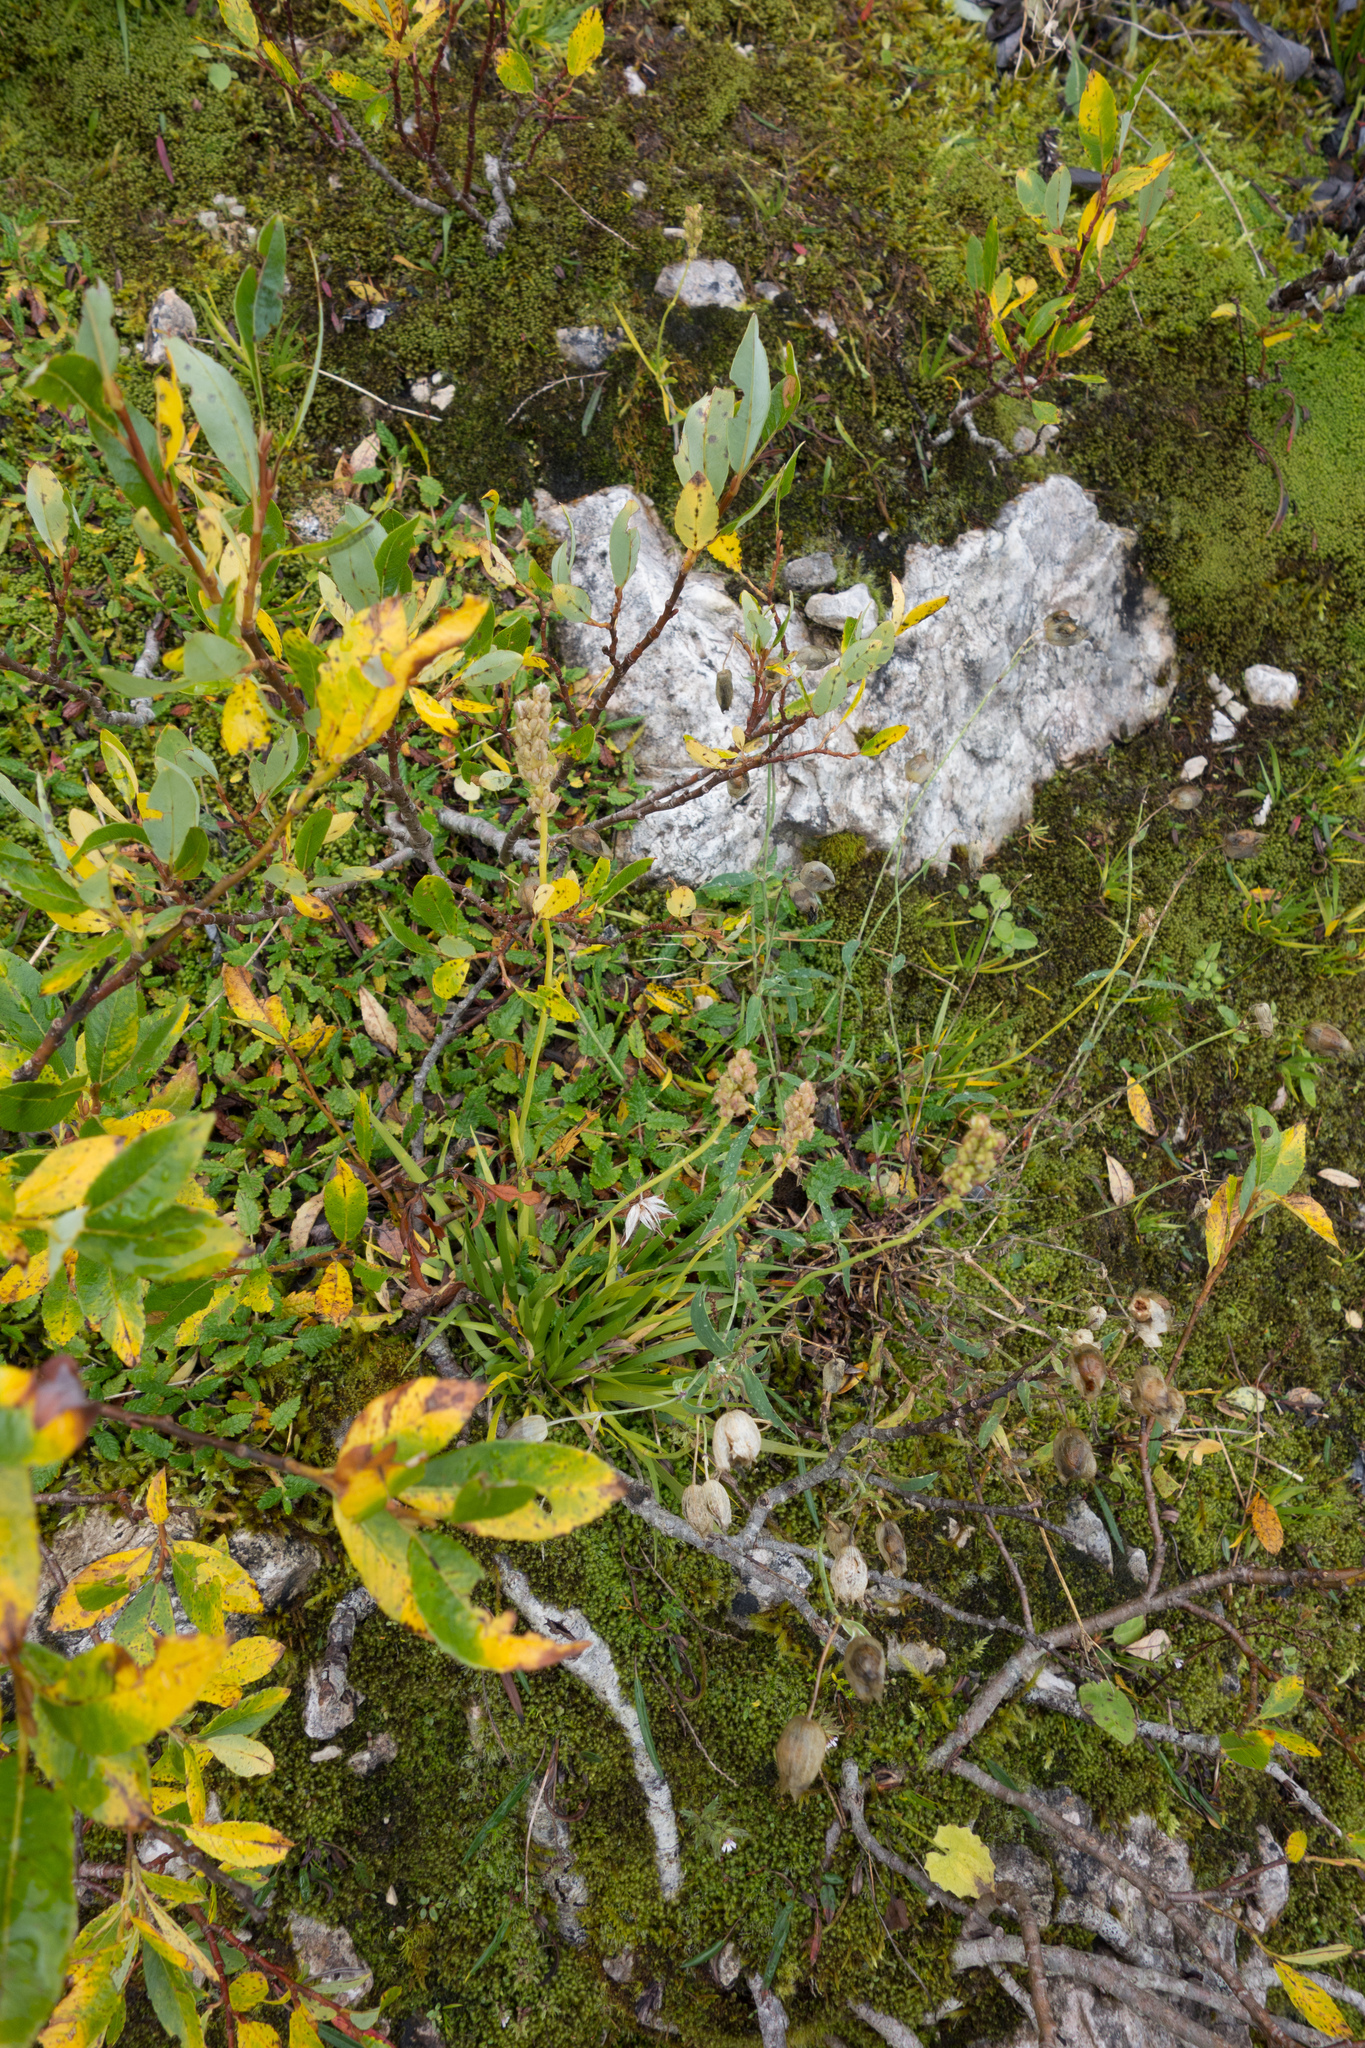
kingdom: Plantae
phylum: Tracheophyta
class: Liliopsida
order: Alismatales
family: Tofieldiaceae
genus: Tofieldia
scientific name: Tofieldia calyculata
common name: German-asphodel
